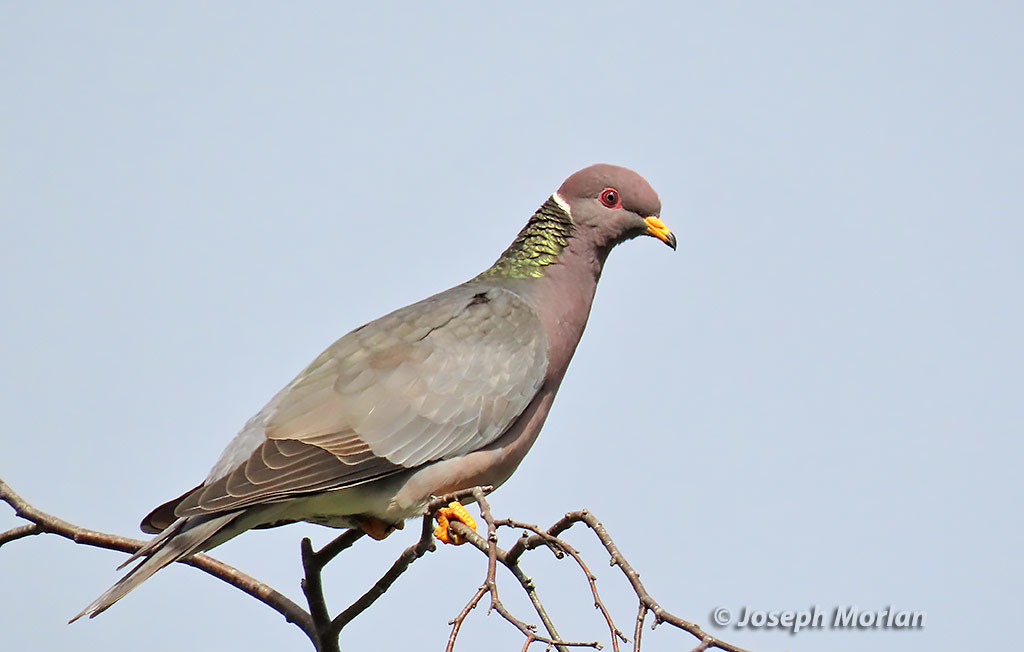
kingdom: Animalia
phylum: Chordata
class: Aves
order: Columbiformes
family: Columbidae
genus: Patagioenas
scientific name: Patagioenas fasciata
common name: Band-tailed pigeon
